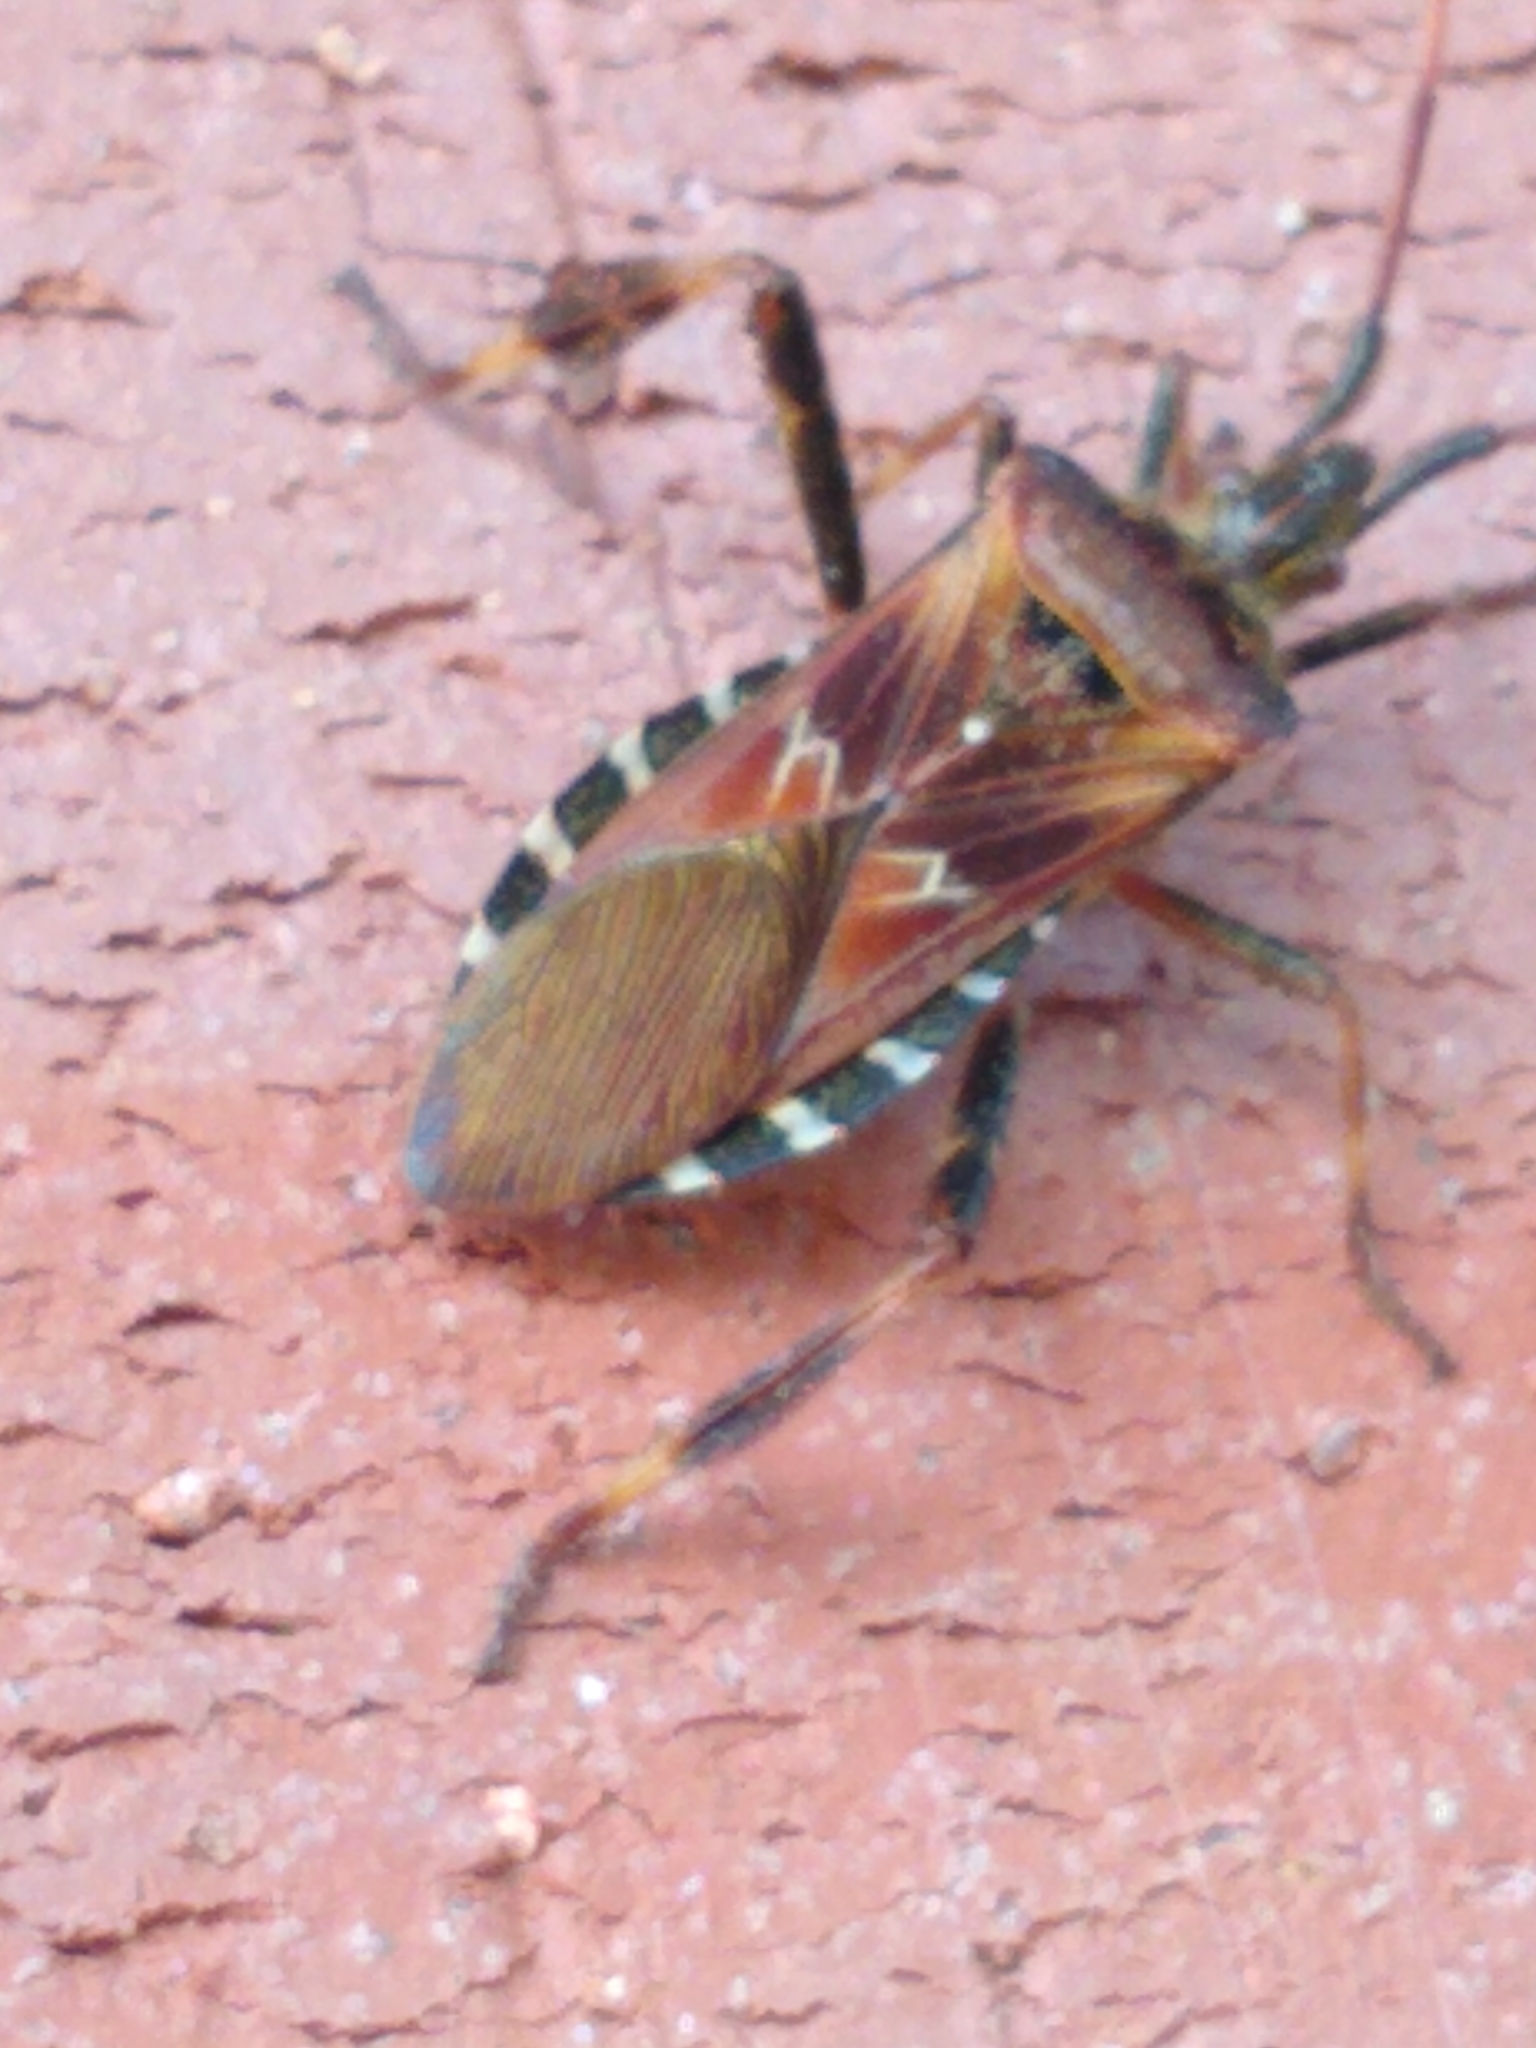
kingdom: Animalia
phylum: Arthropoda
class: Insecta
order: Hemiptera
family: Coreidae
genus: Leptoglossus
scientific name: Leptoglossus occidentalis
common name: Western conifer-seed bug
